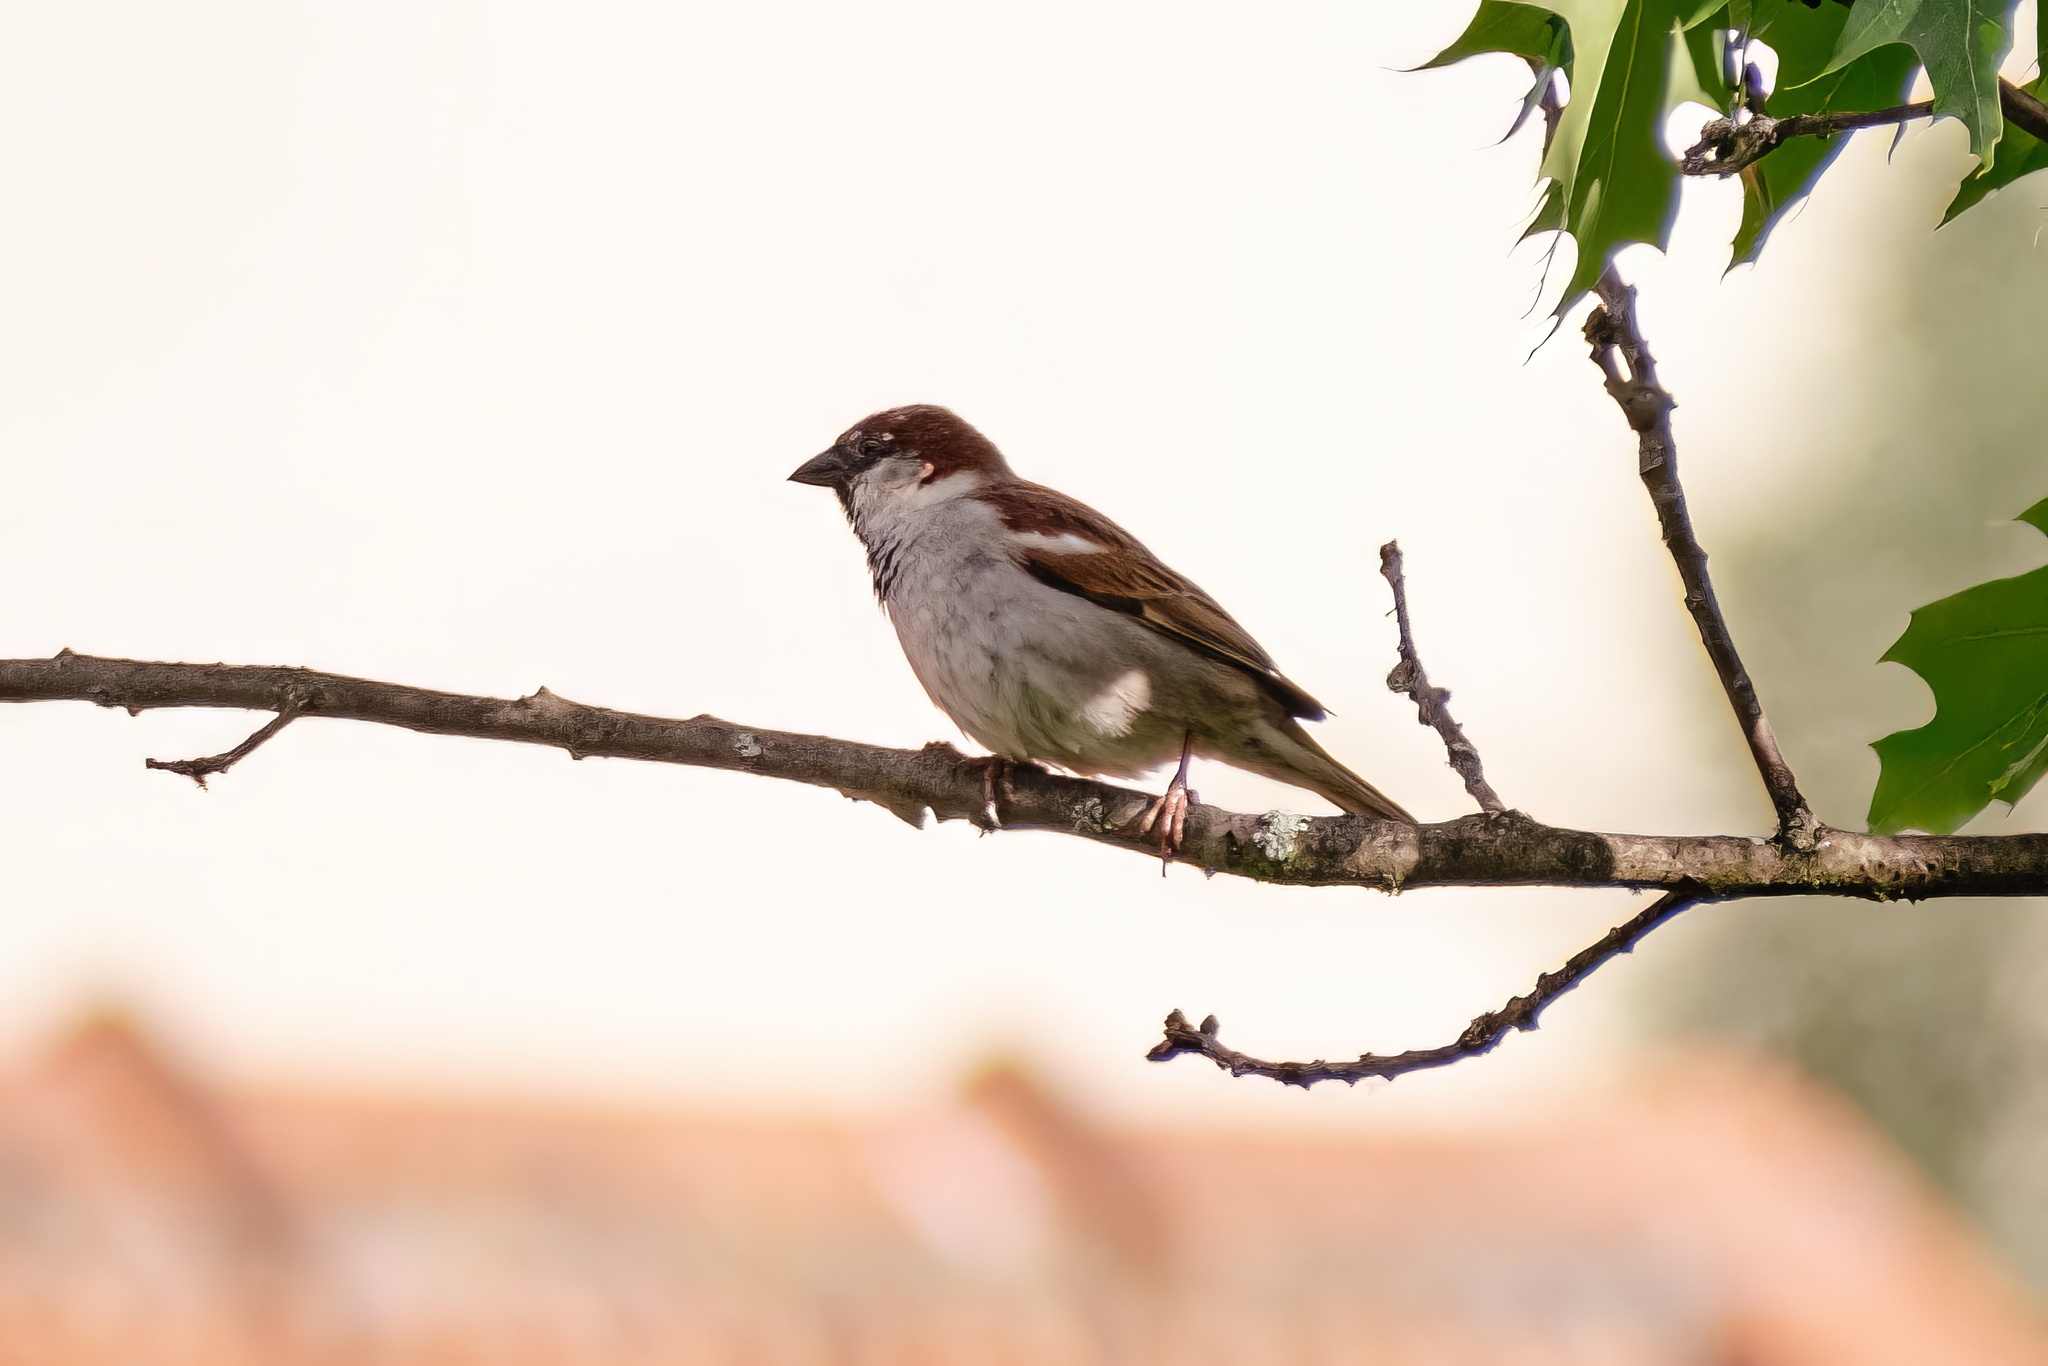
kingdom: Animalia
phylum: Chordata
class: Aves
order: Passeriformes
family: Passeridae
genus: Passer
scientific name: Passer domesticus
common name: House sparrow
